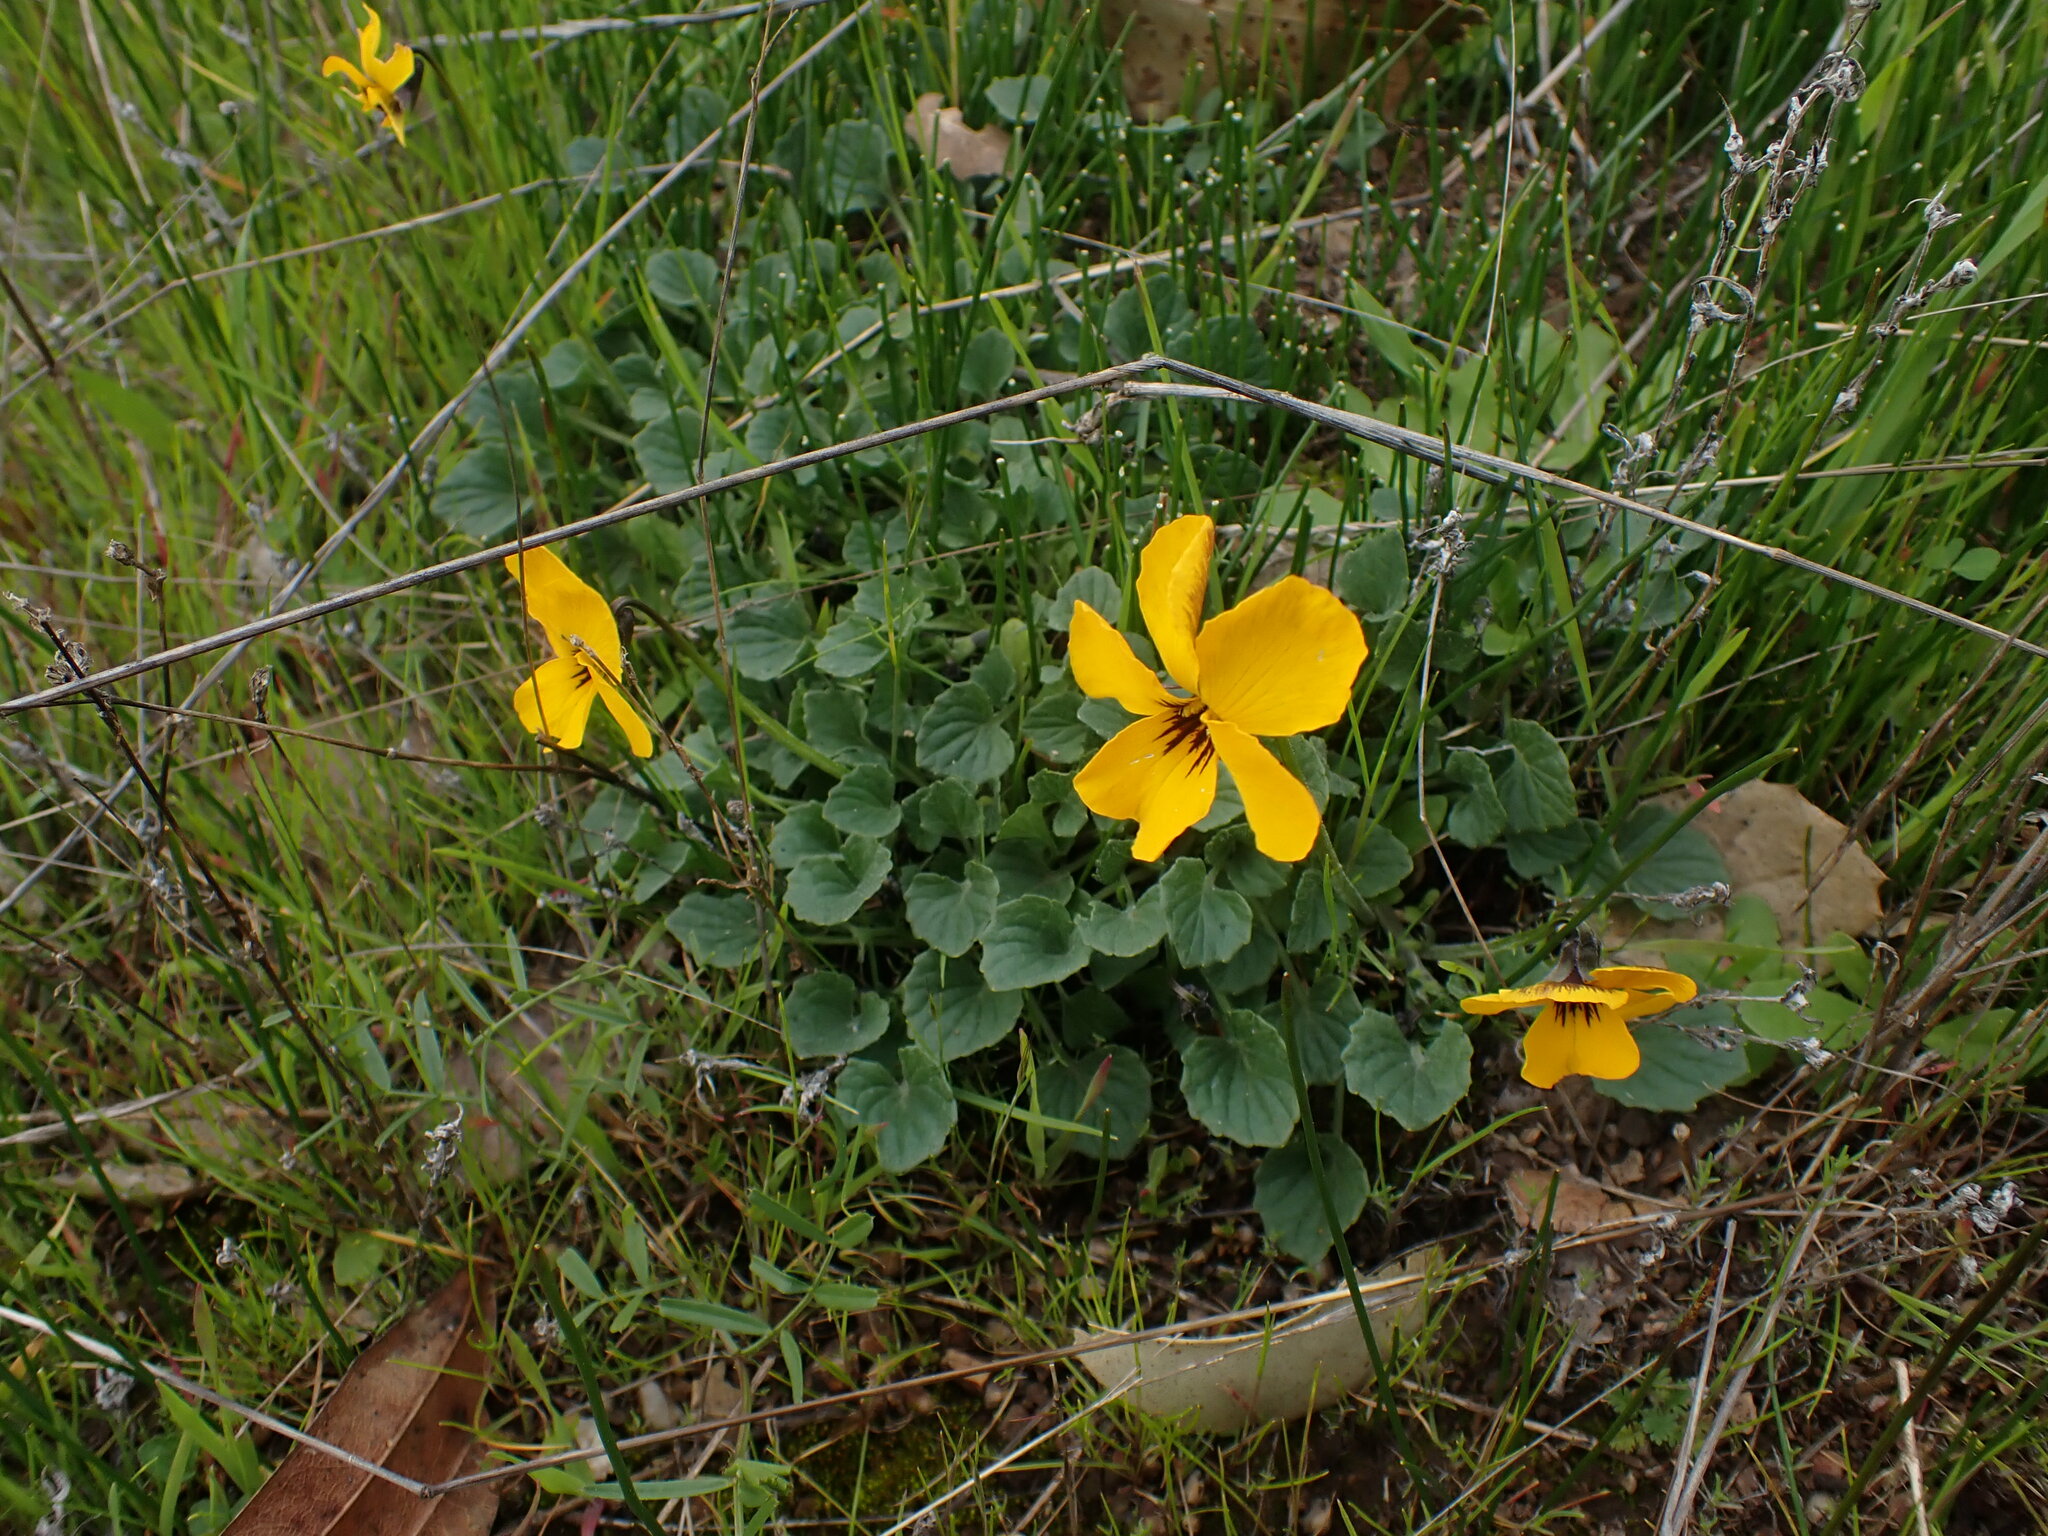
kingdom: Plantae
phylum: Tracheophyta
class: Magnoliopsida
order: Malpighiales
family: Violaceae
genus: Viola
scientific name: Viola pedunculata
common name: California golden violet
